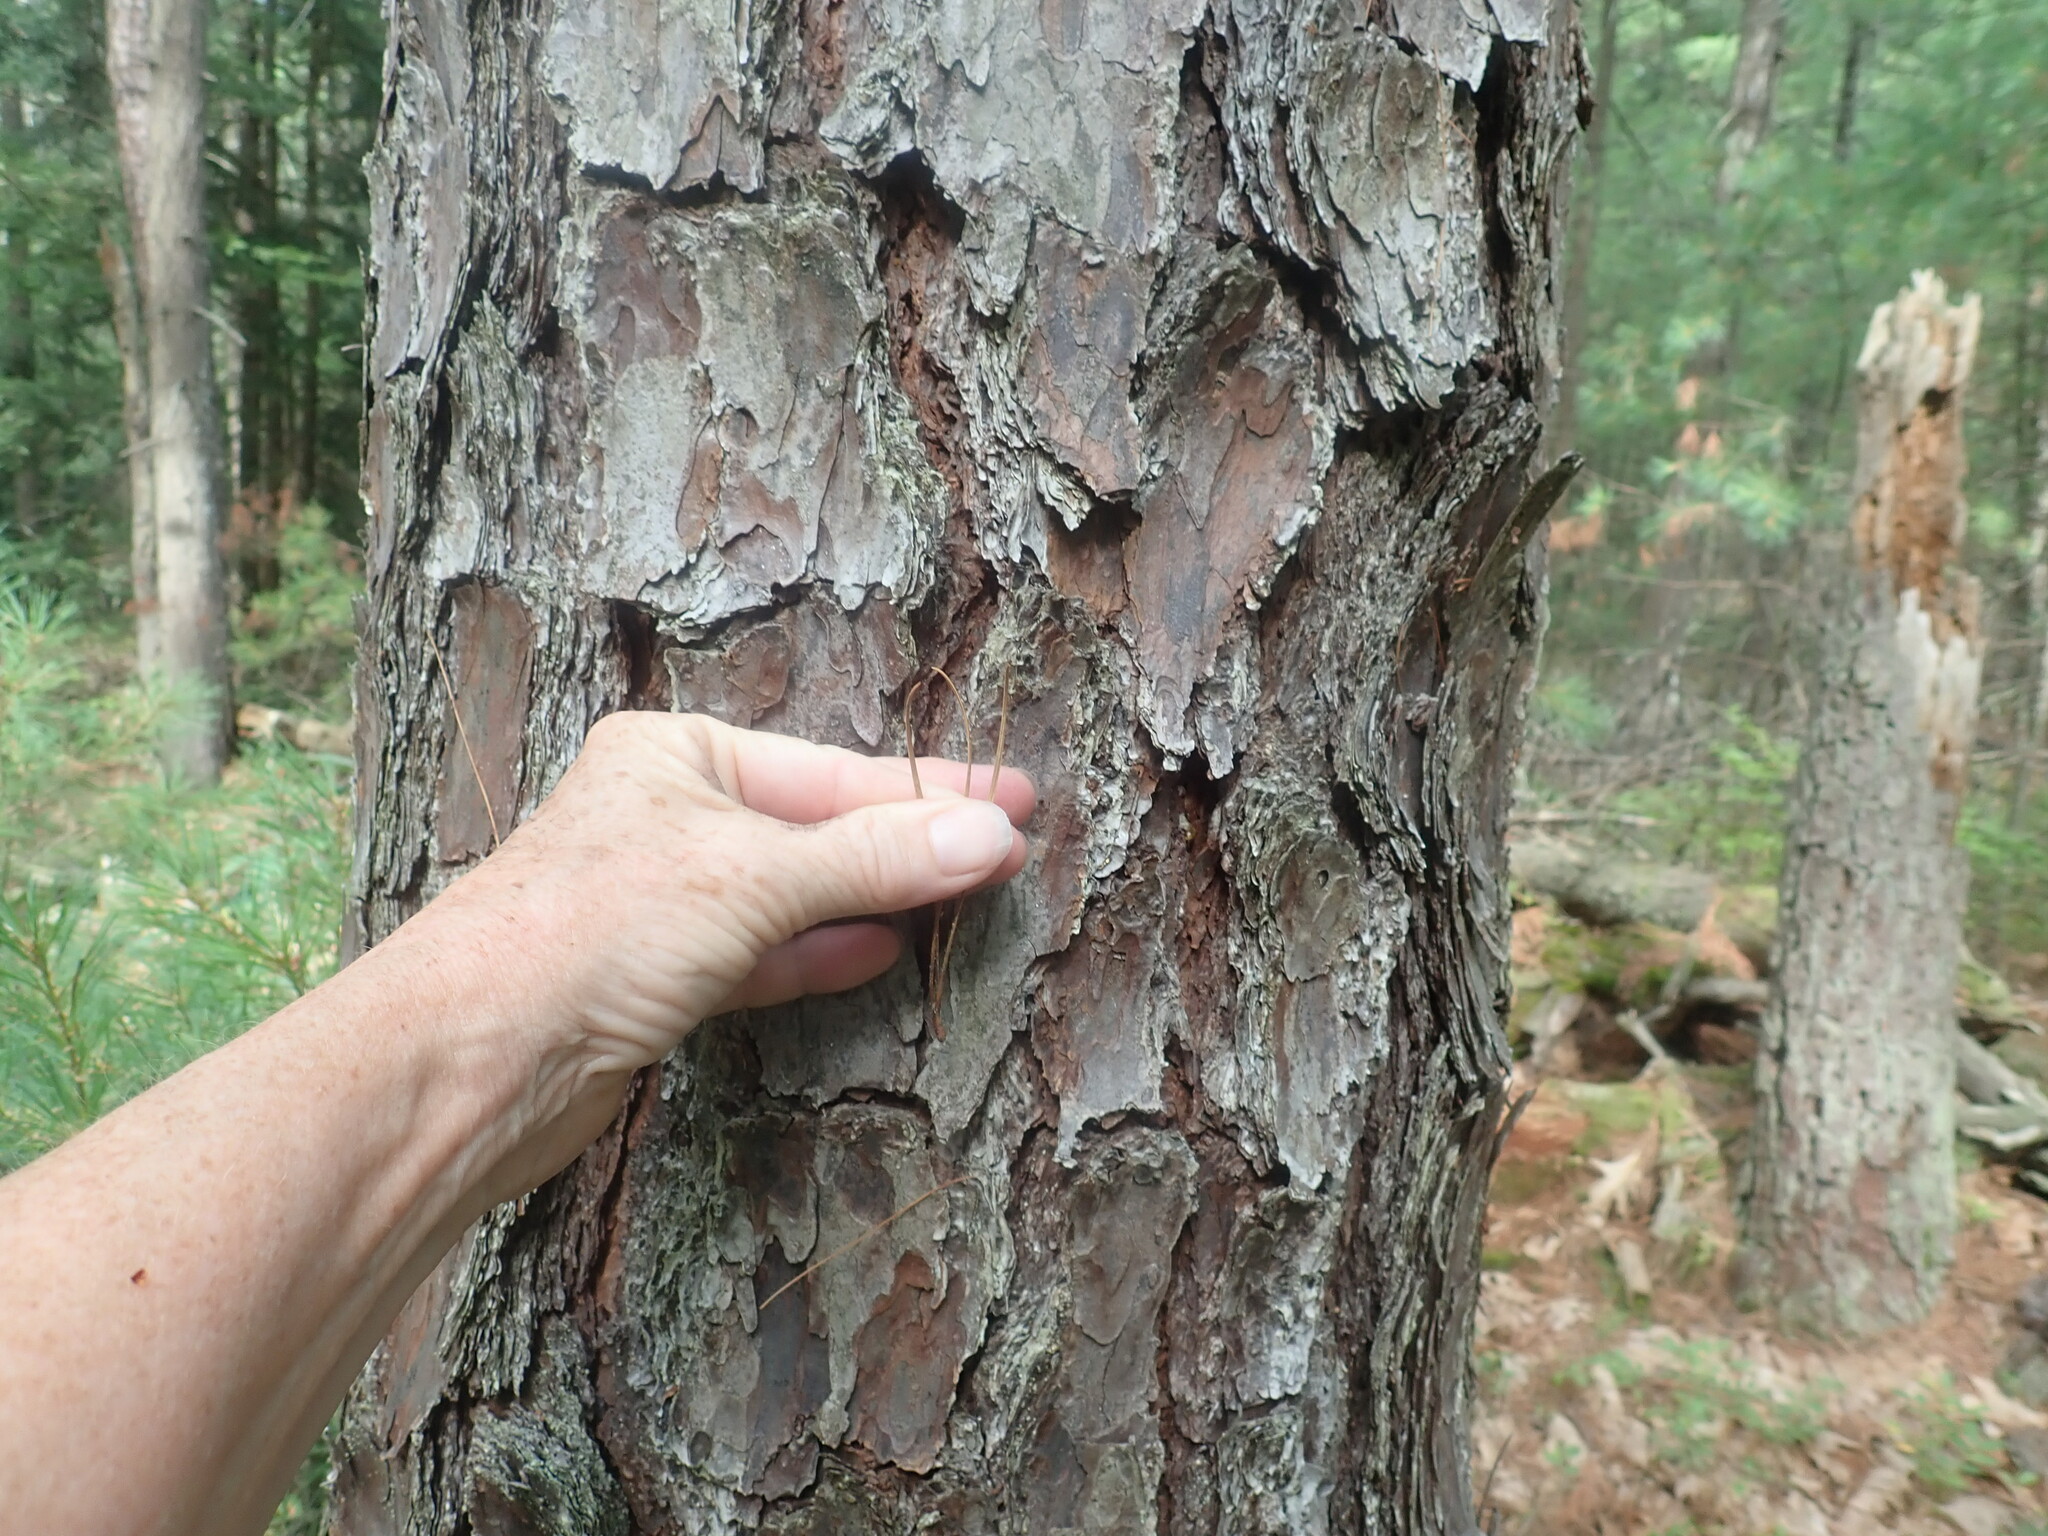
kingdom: Plantae
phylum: Tracheophyta
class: Pinopsida
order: Pinales
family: Pinaceae
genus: Pinus
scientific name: Pinus rigida
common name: Pitch pine
